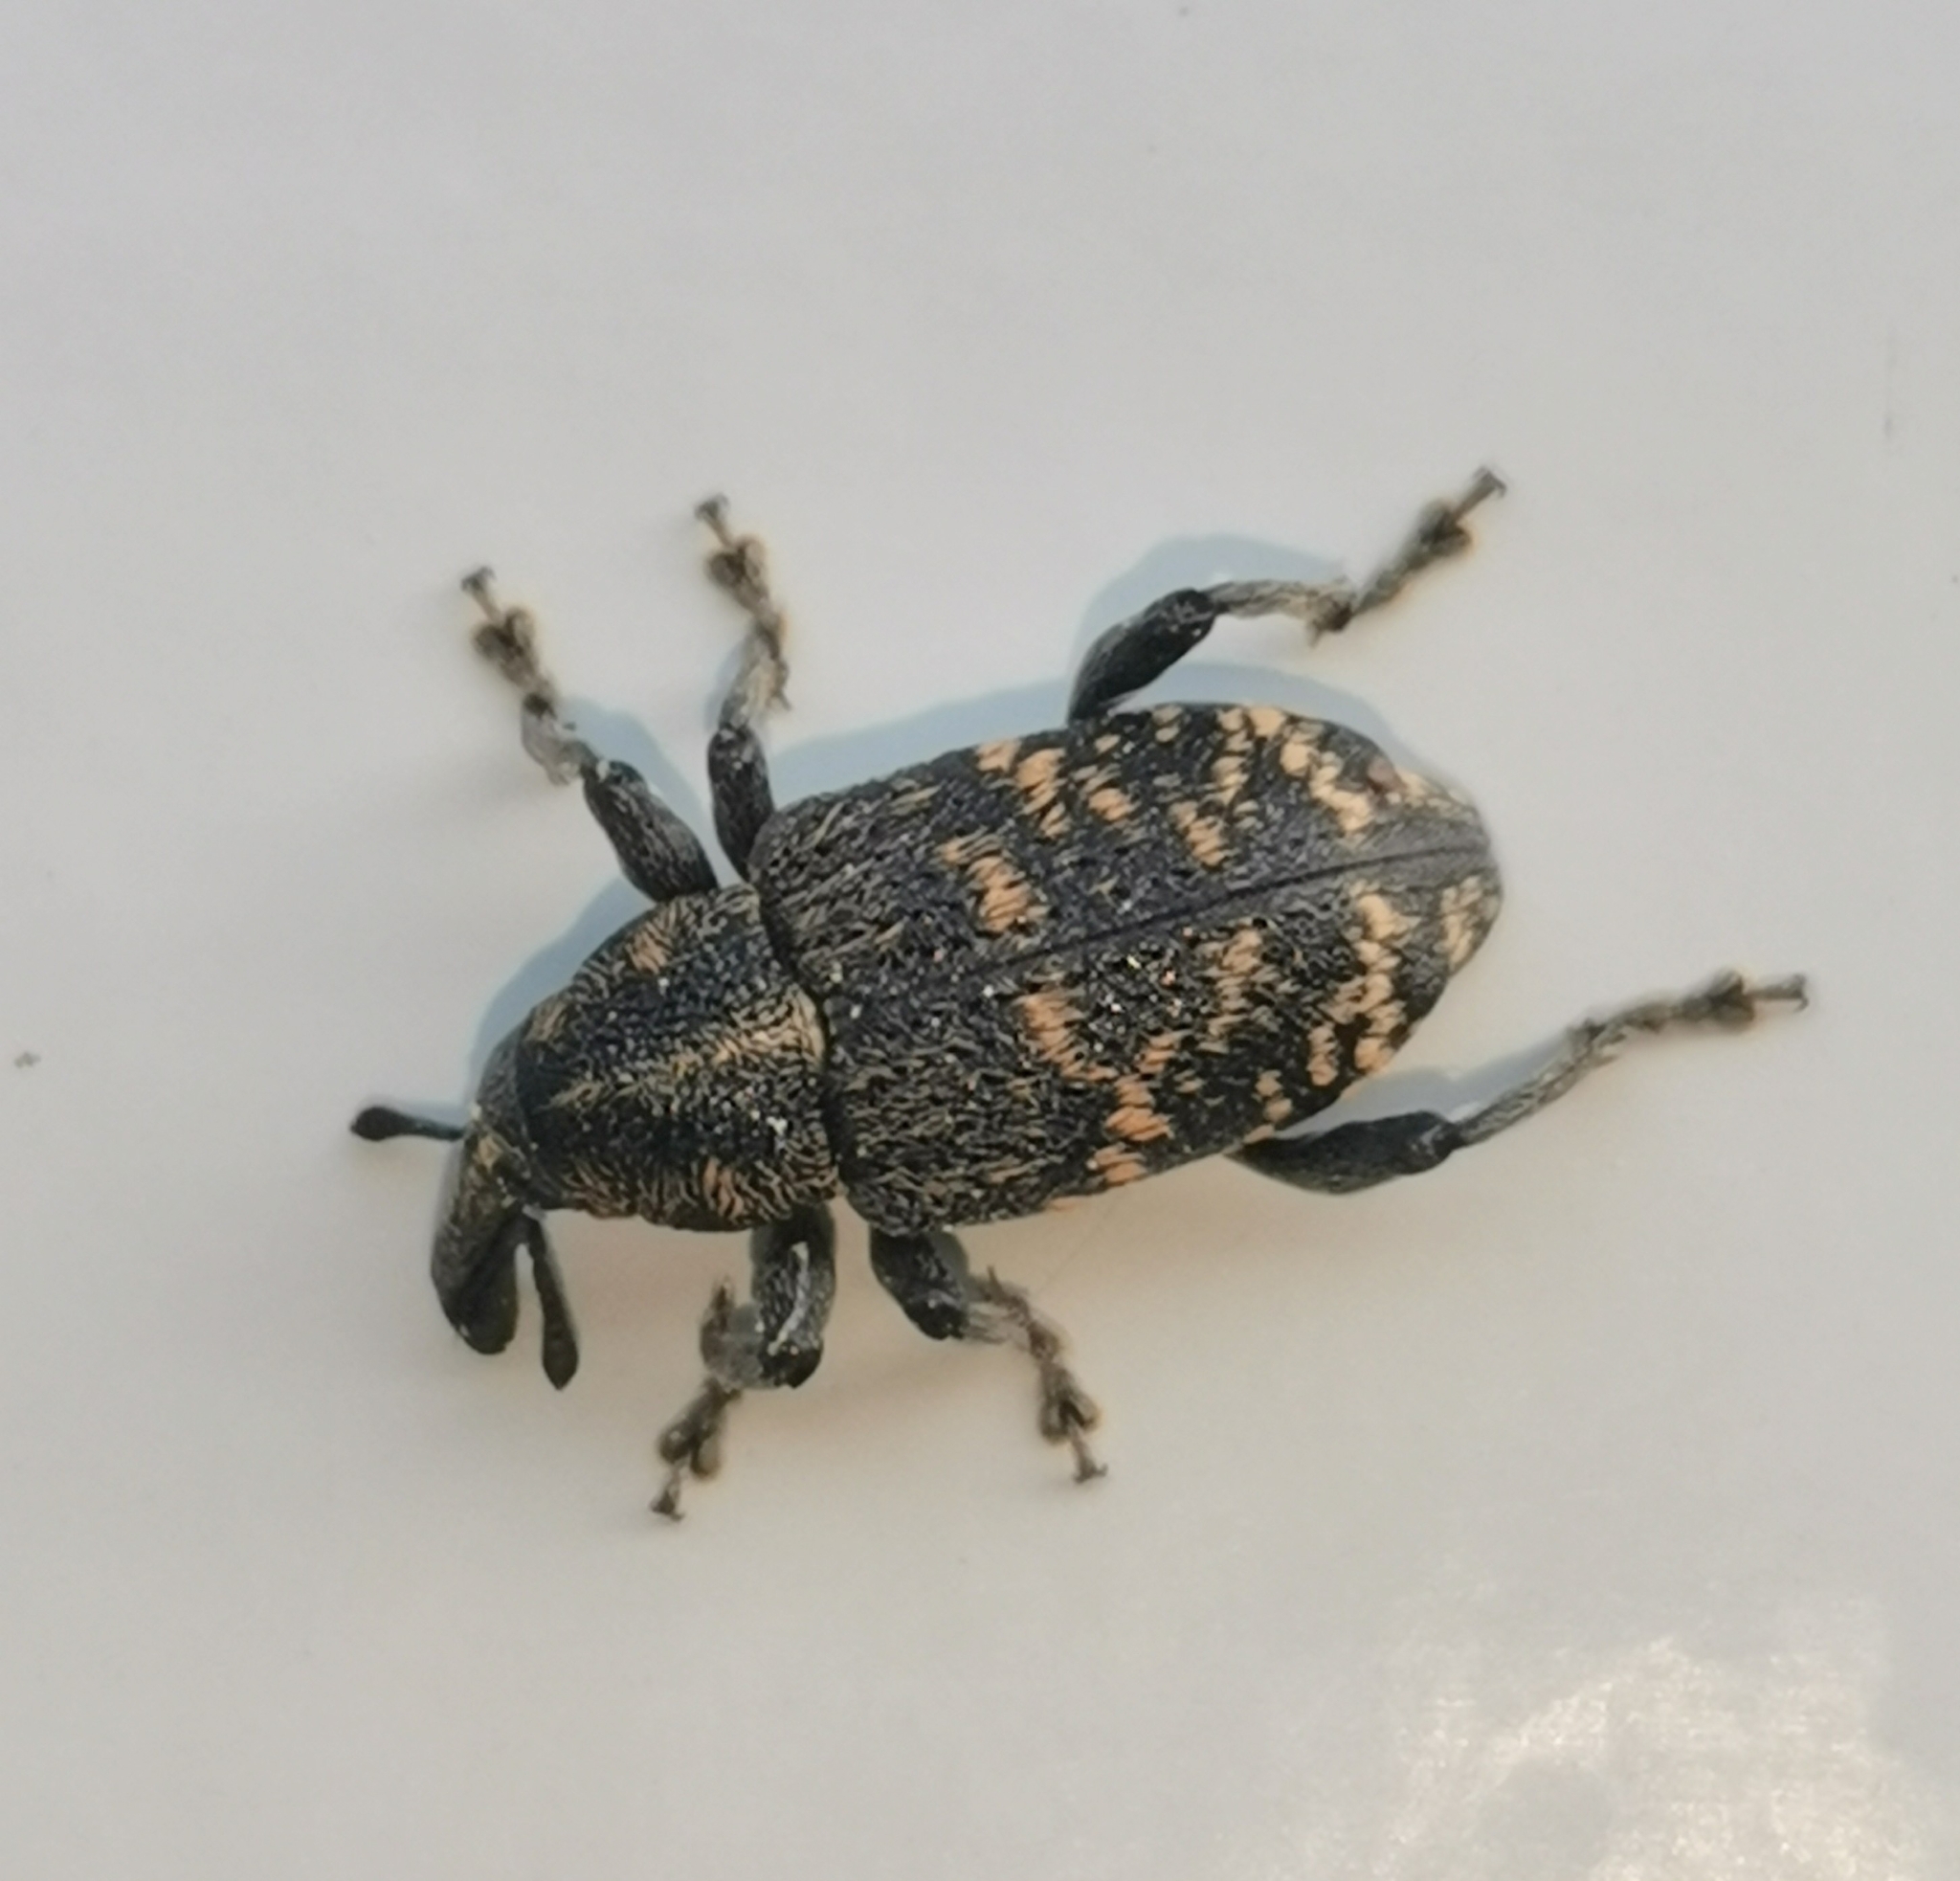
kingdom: Animalia
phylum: Arthropoda
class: Insecta
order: Coleoptera
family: Curculionidae
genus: Hylobius
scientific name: Hylobius abietis
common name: Large pine weevil
